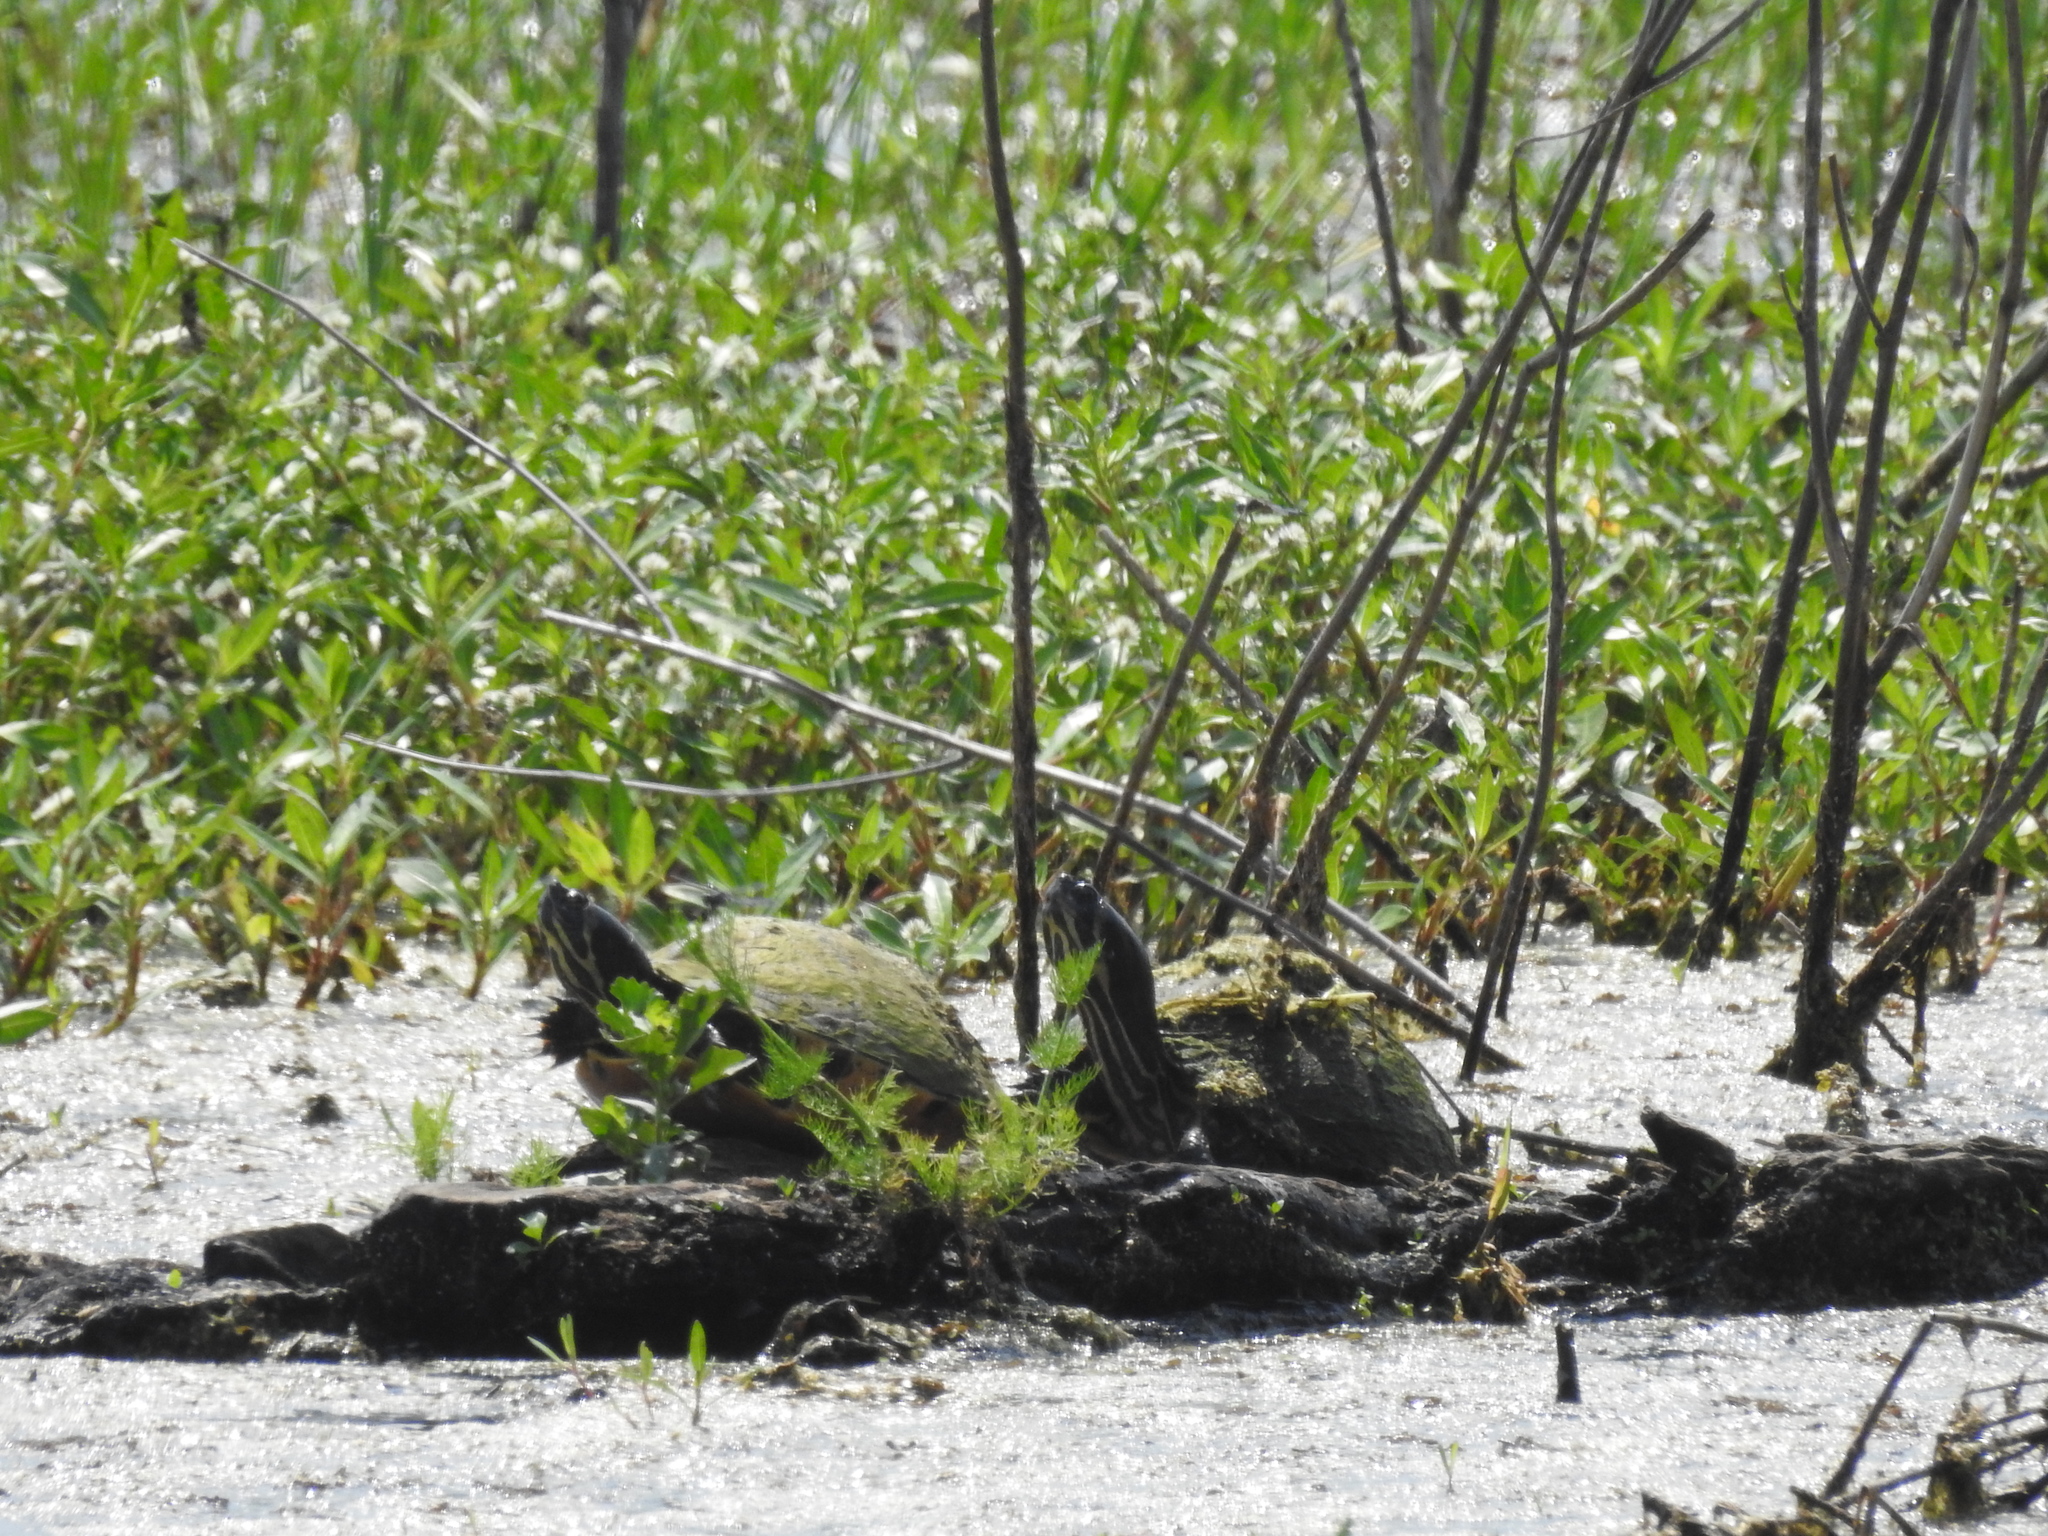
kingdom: Animalia
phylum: Chordata
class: Testudines
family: Emydidae
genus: Trachemys
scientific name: Trachemys scripta
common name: Slider
